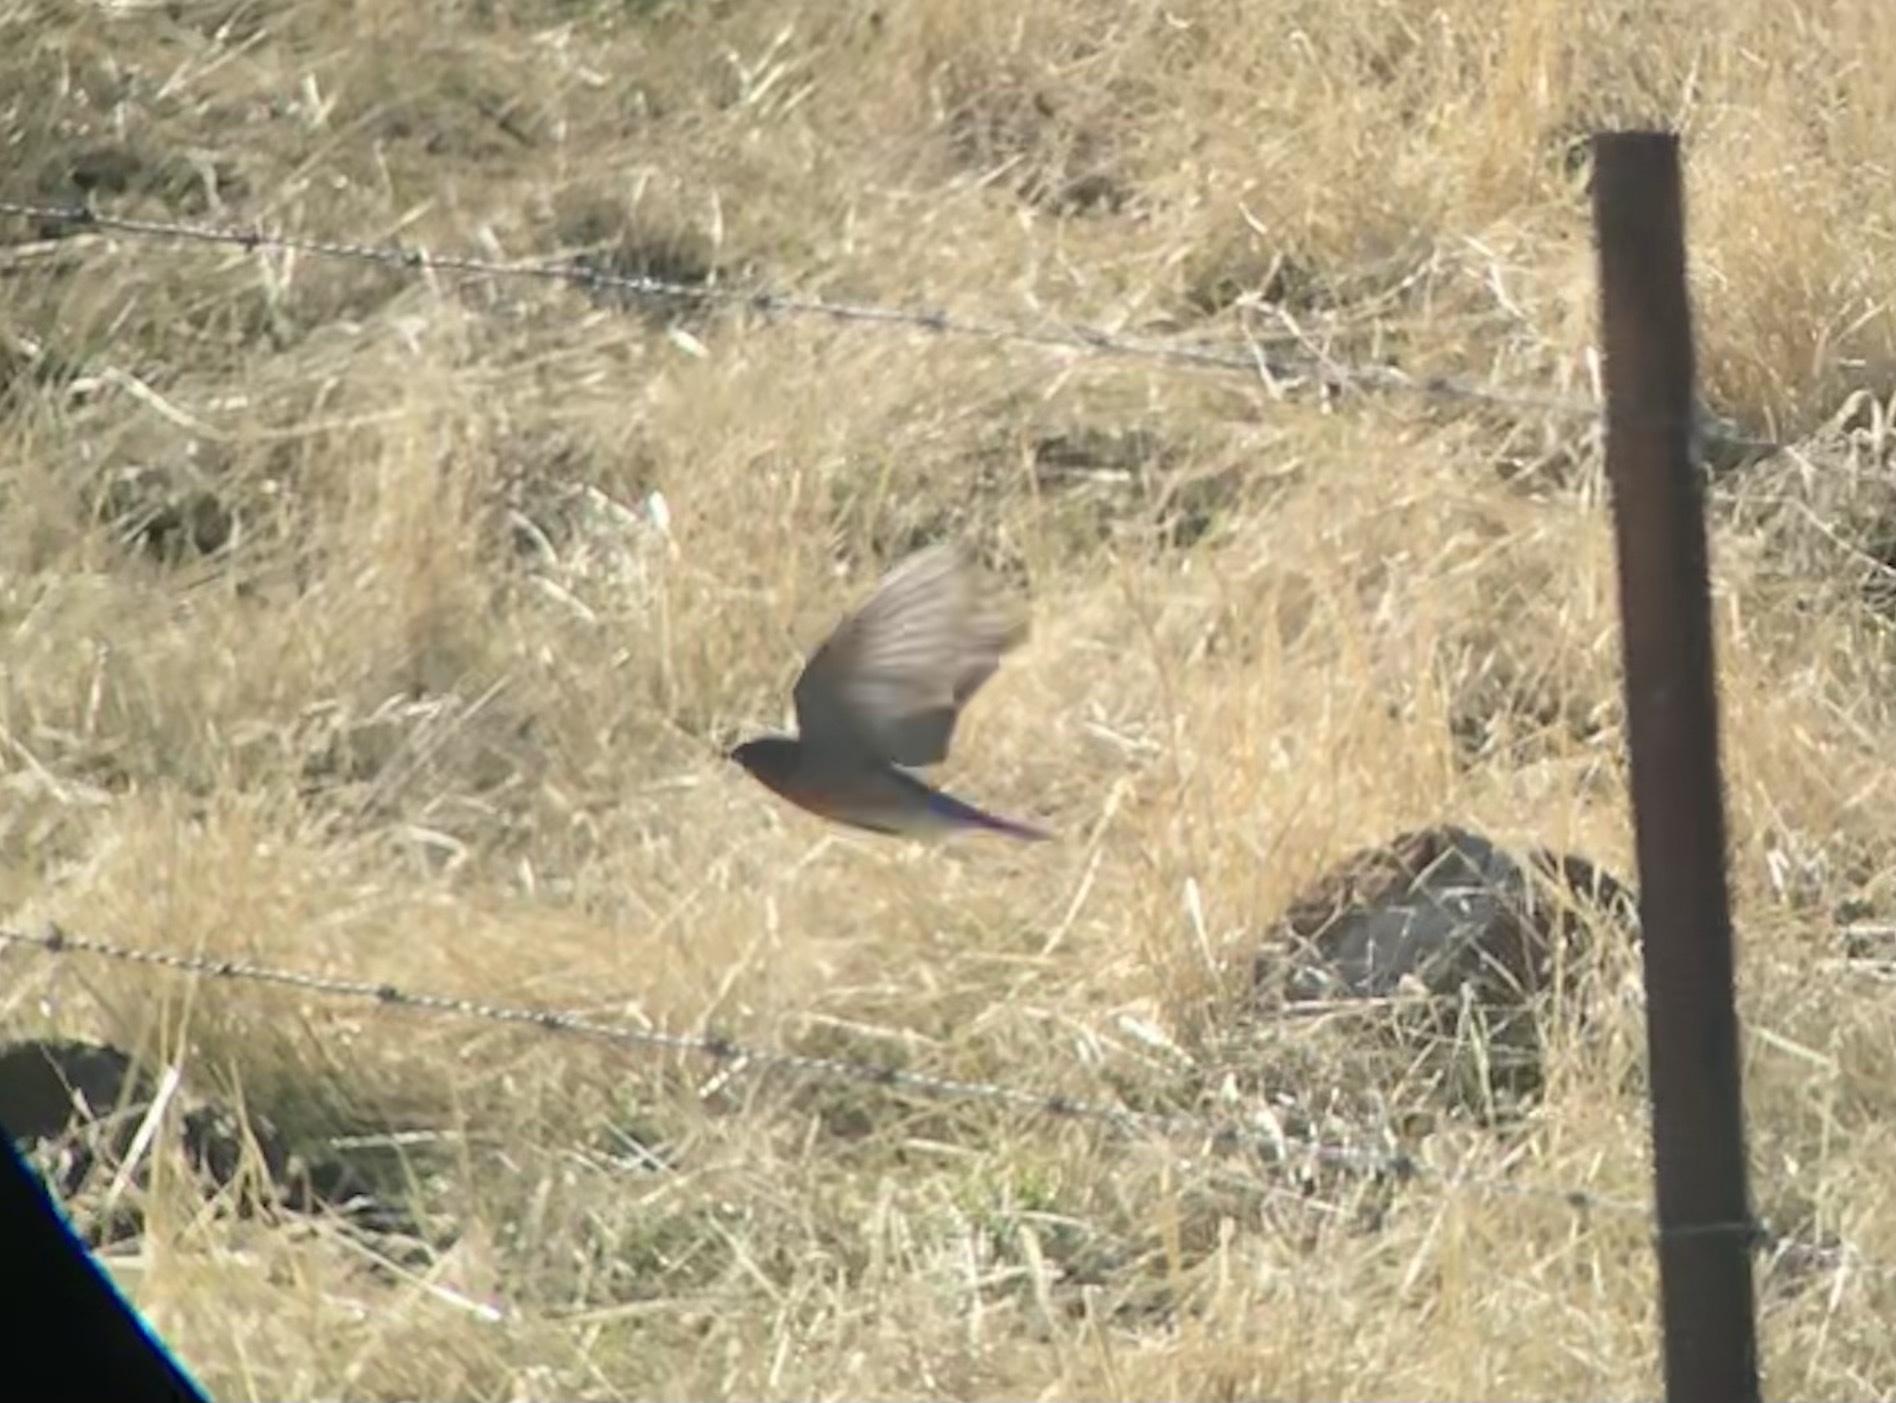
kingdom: Animalia
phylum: Chordata
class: Aves
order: Passeriformes
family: Turdidae
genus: Sialia
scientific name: Sialia mexicana
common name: Western bluebird
